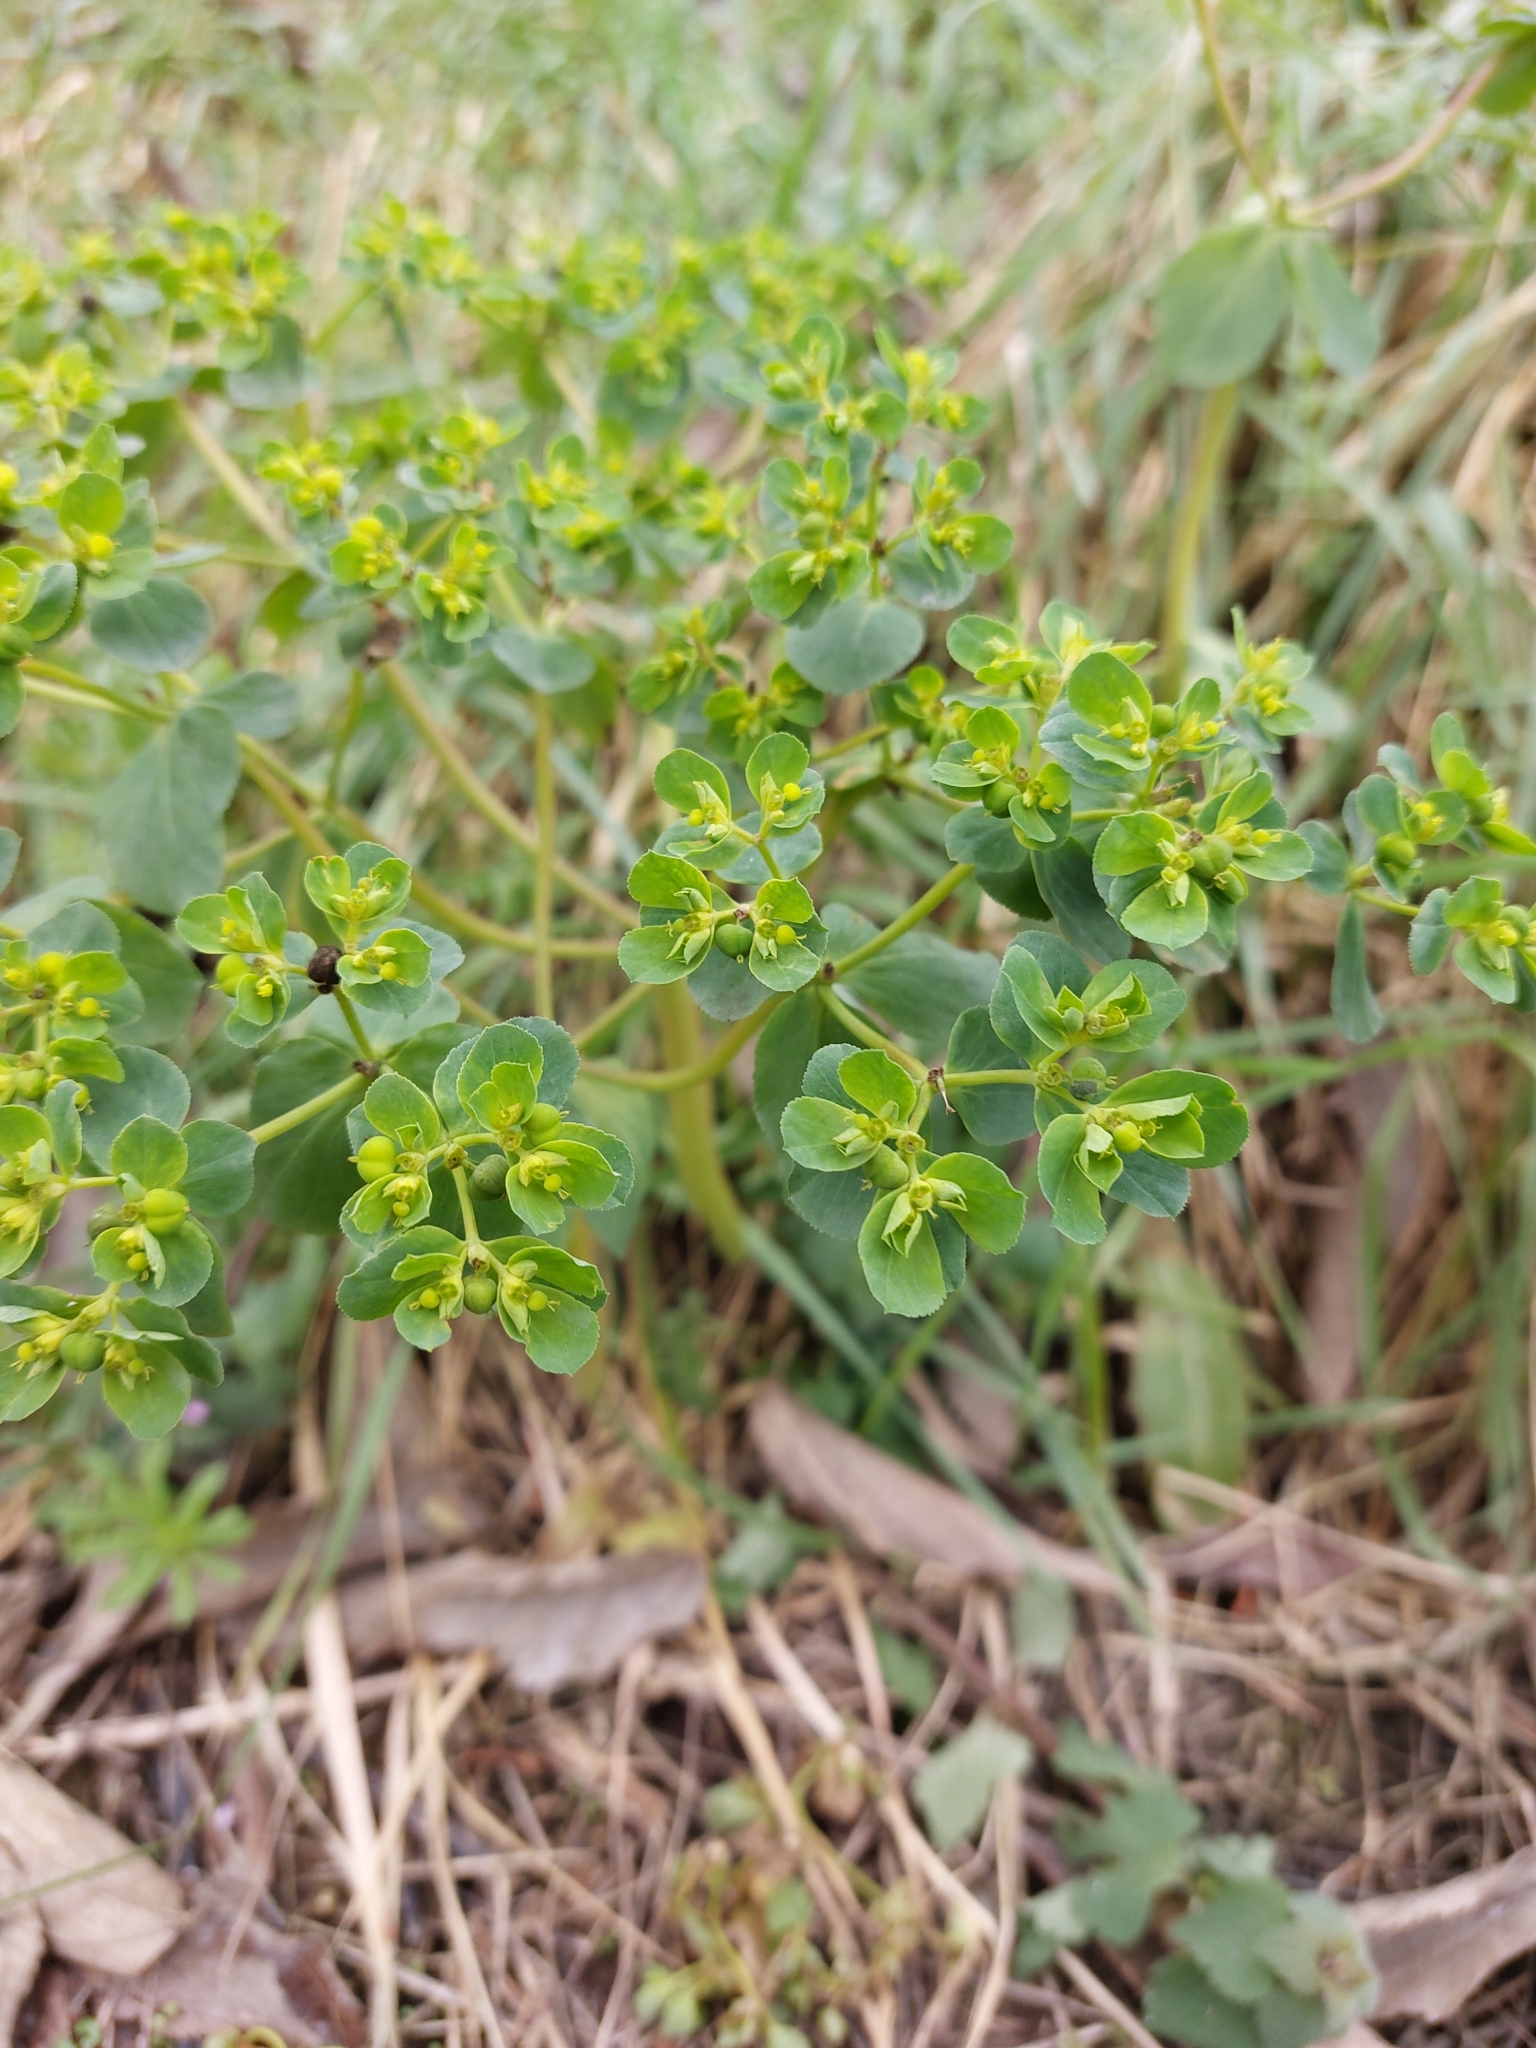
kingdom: Plantae
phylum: Tracheophyta
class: Magnoliopsida
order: Malpighiales
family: Euphorbiaceae
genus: Euphorbia
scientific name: Euphorbia helioscopia
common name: Sun spurge
